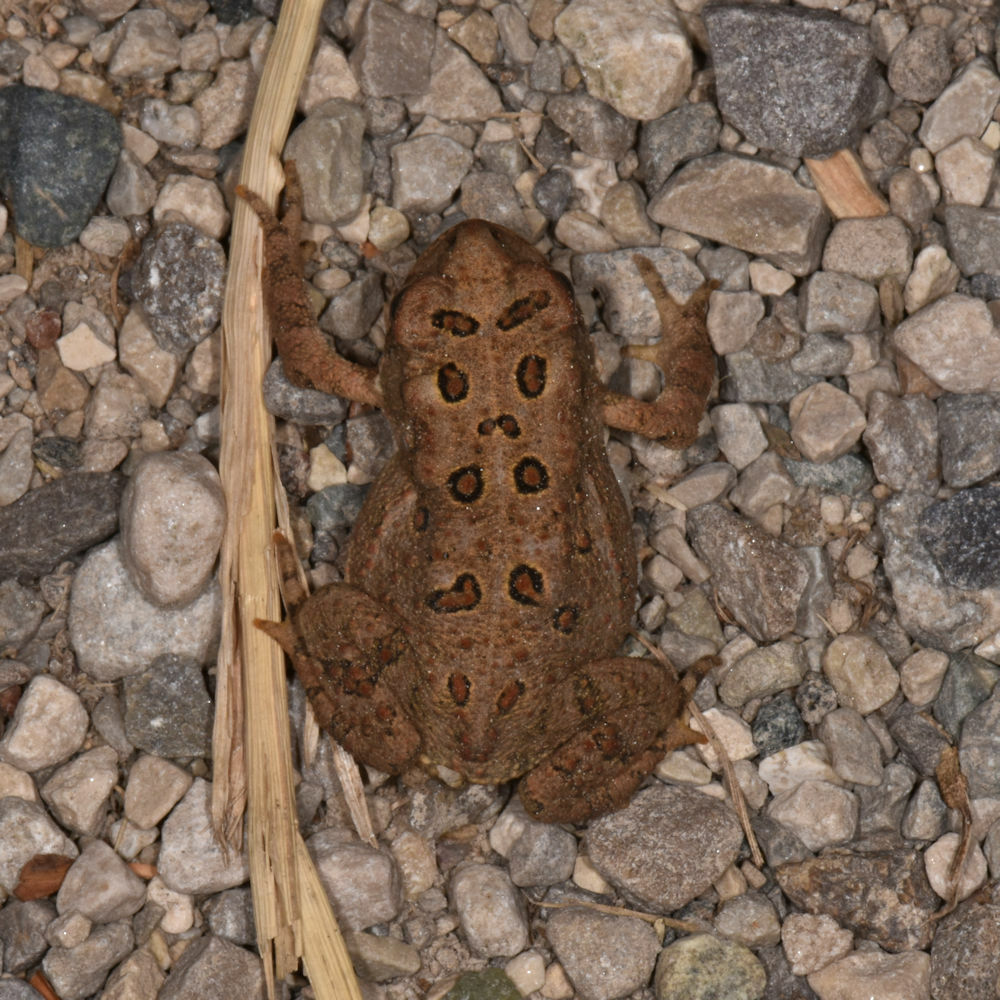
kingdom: Animalia
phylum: Chordata
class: Amphibia
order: Anura
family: Bufonidae
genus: Anaxyrus
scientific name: Anaxyrus americanus
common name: American toad
